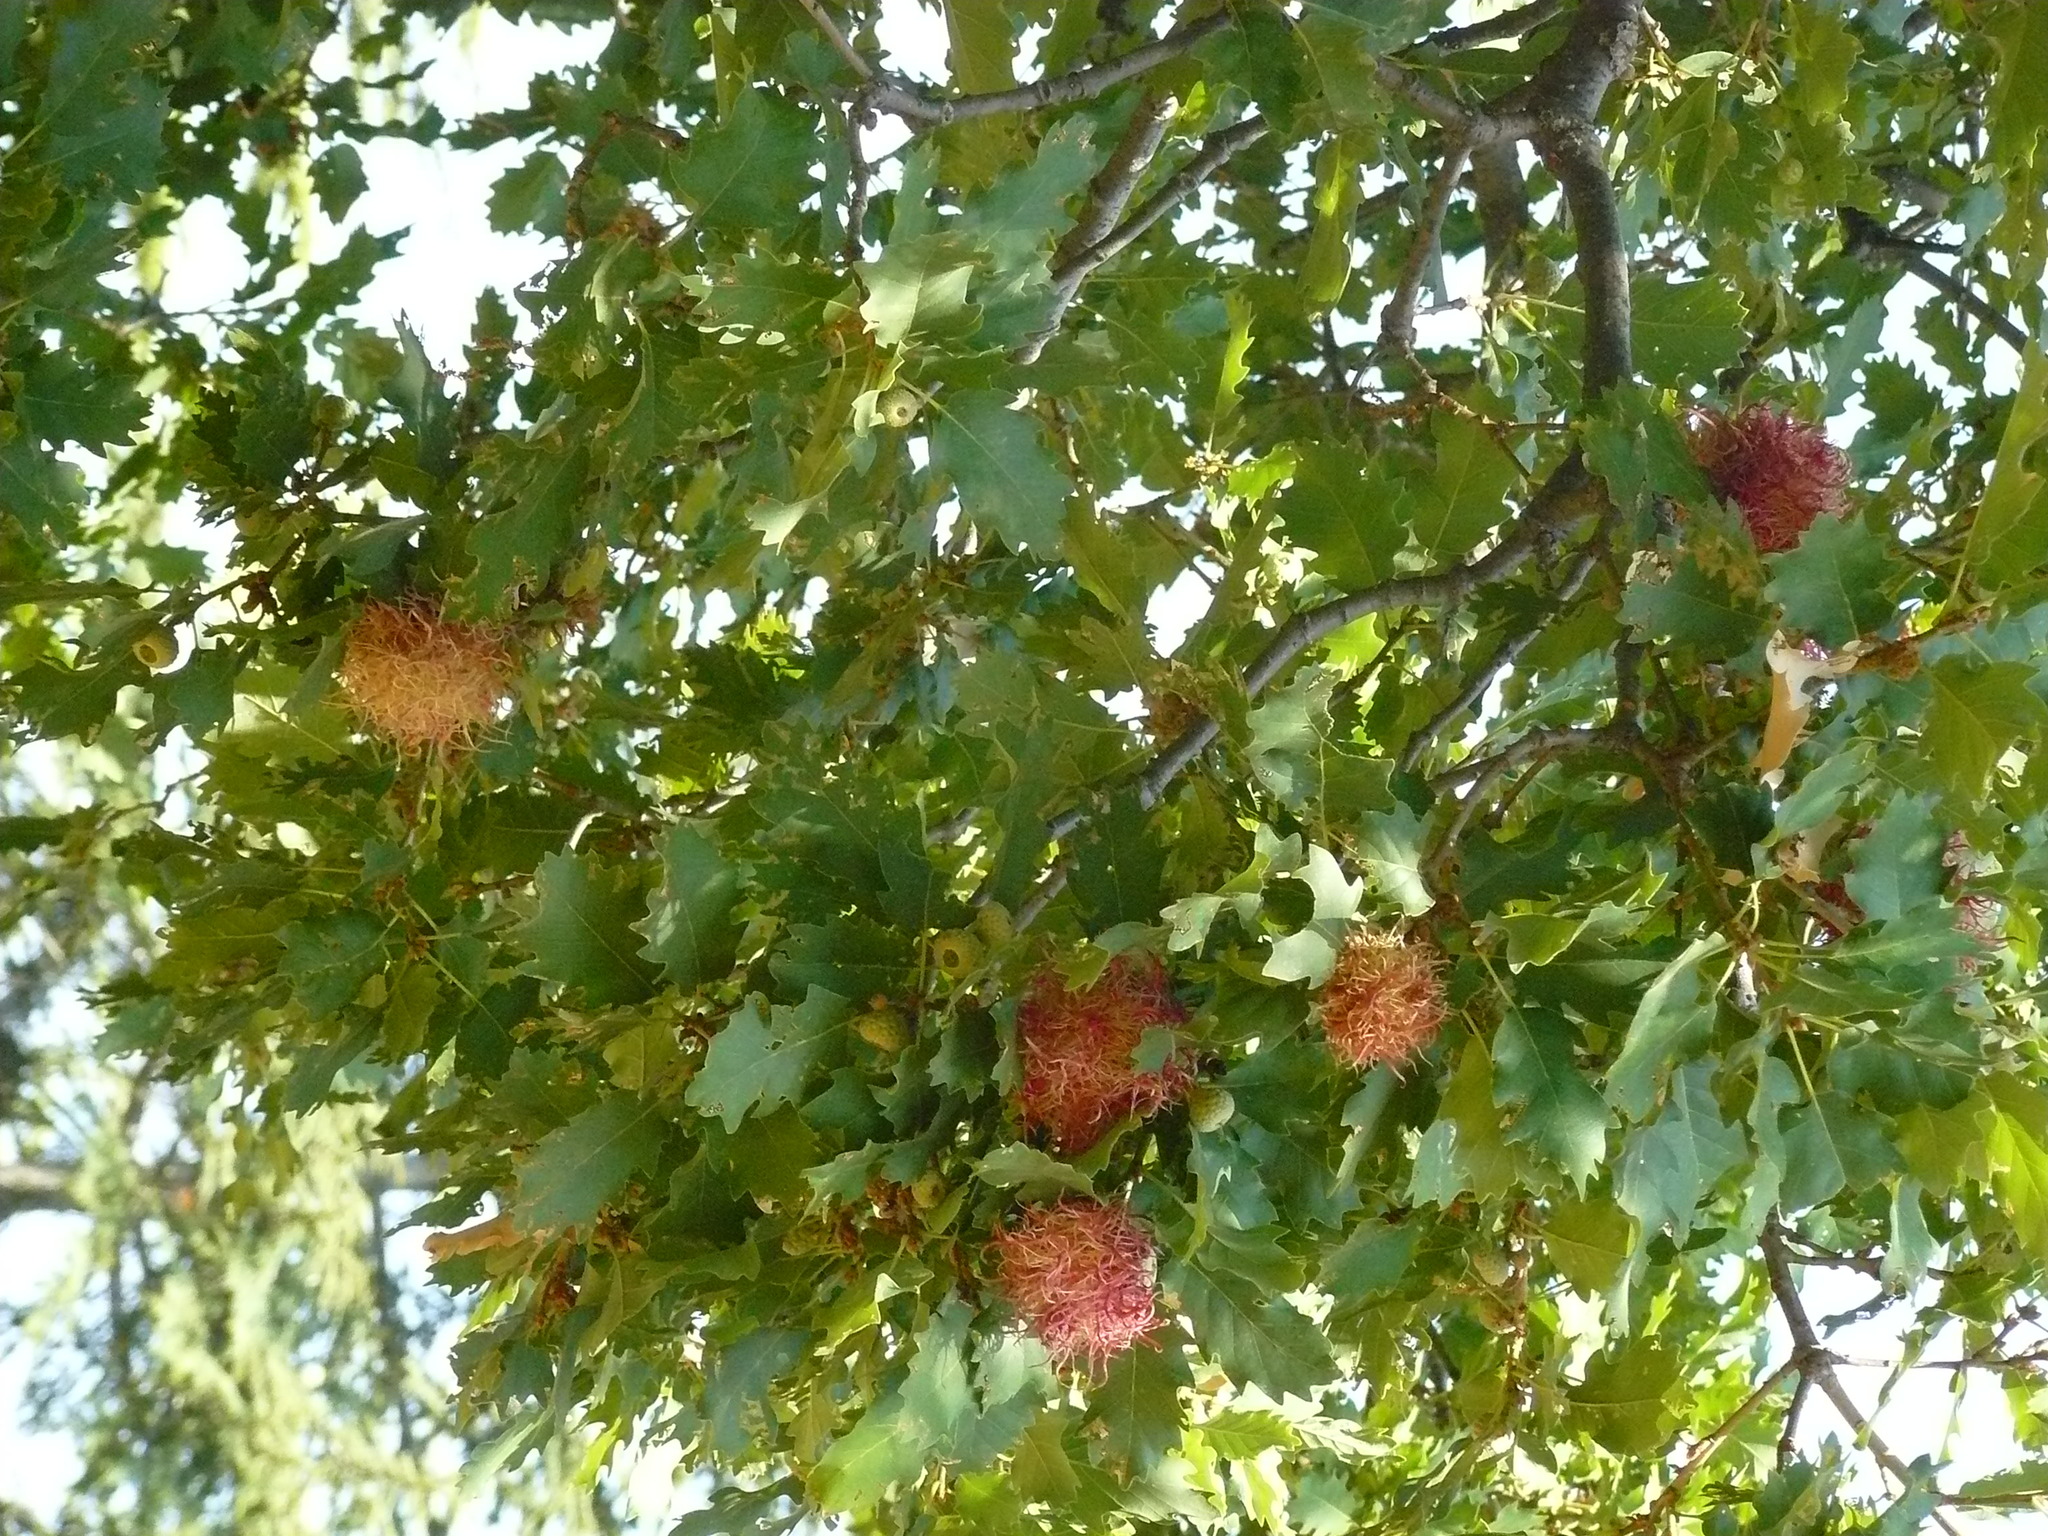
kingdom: Animalia
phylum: Arthropoda
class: Insecta
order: Hymenoptera
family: Cynipidae
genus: Andricus
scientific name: Andricus caputmedusae
